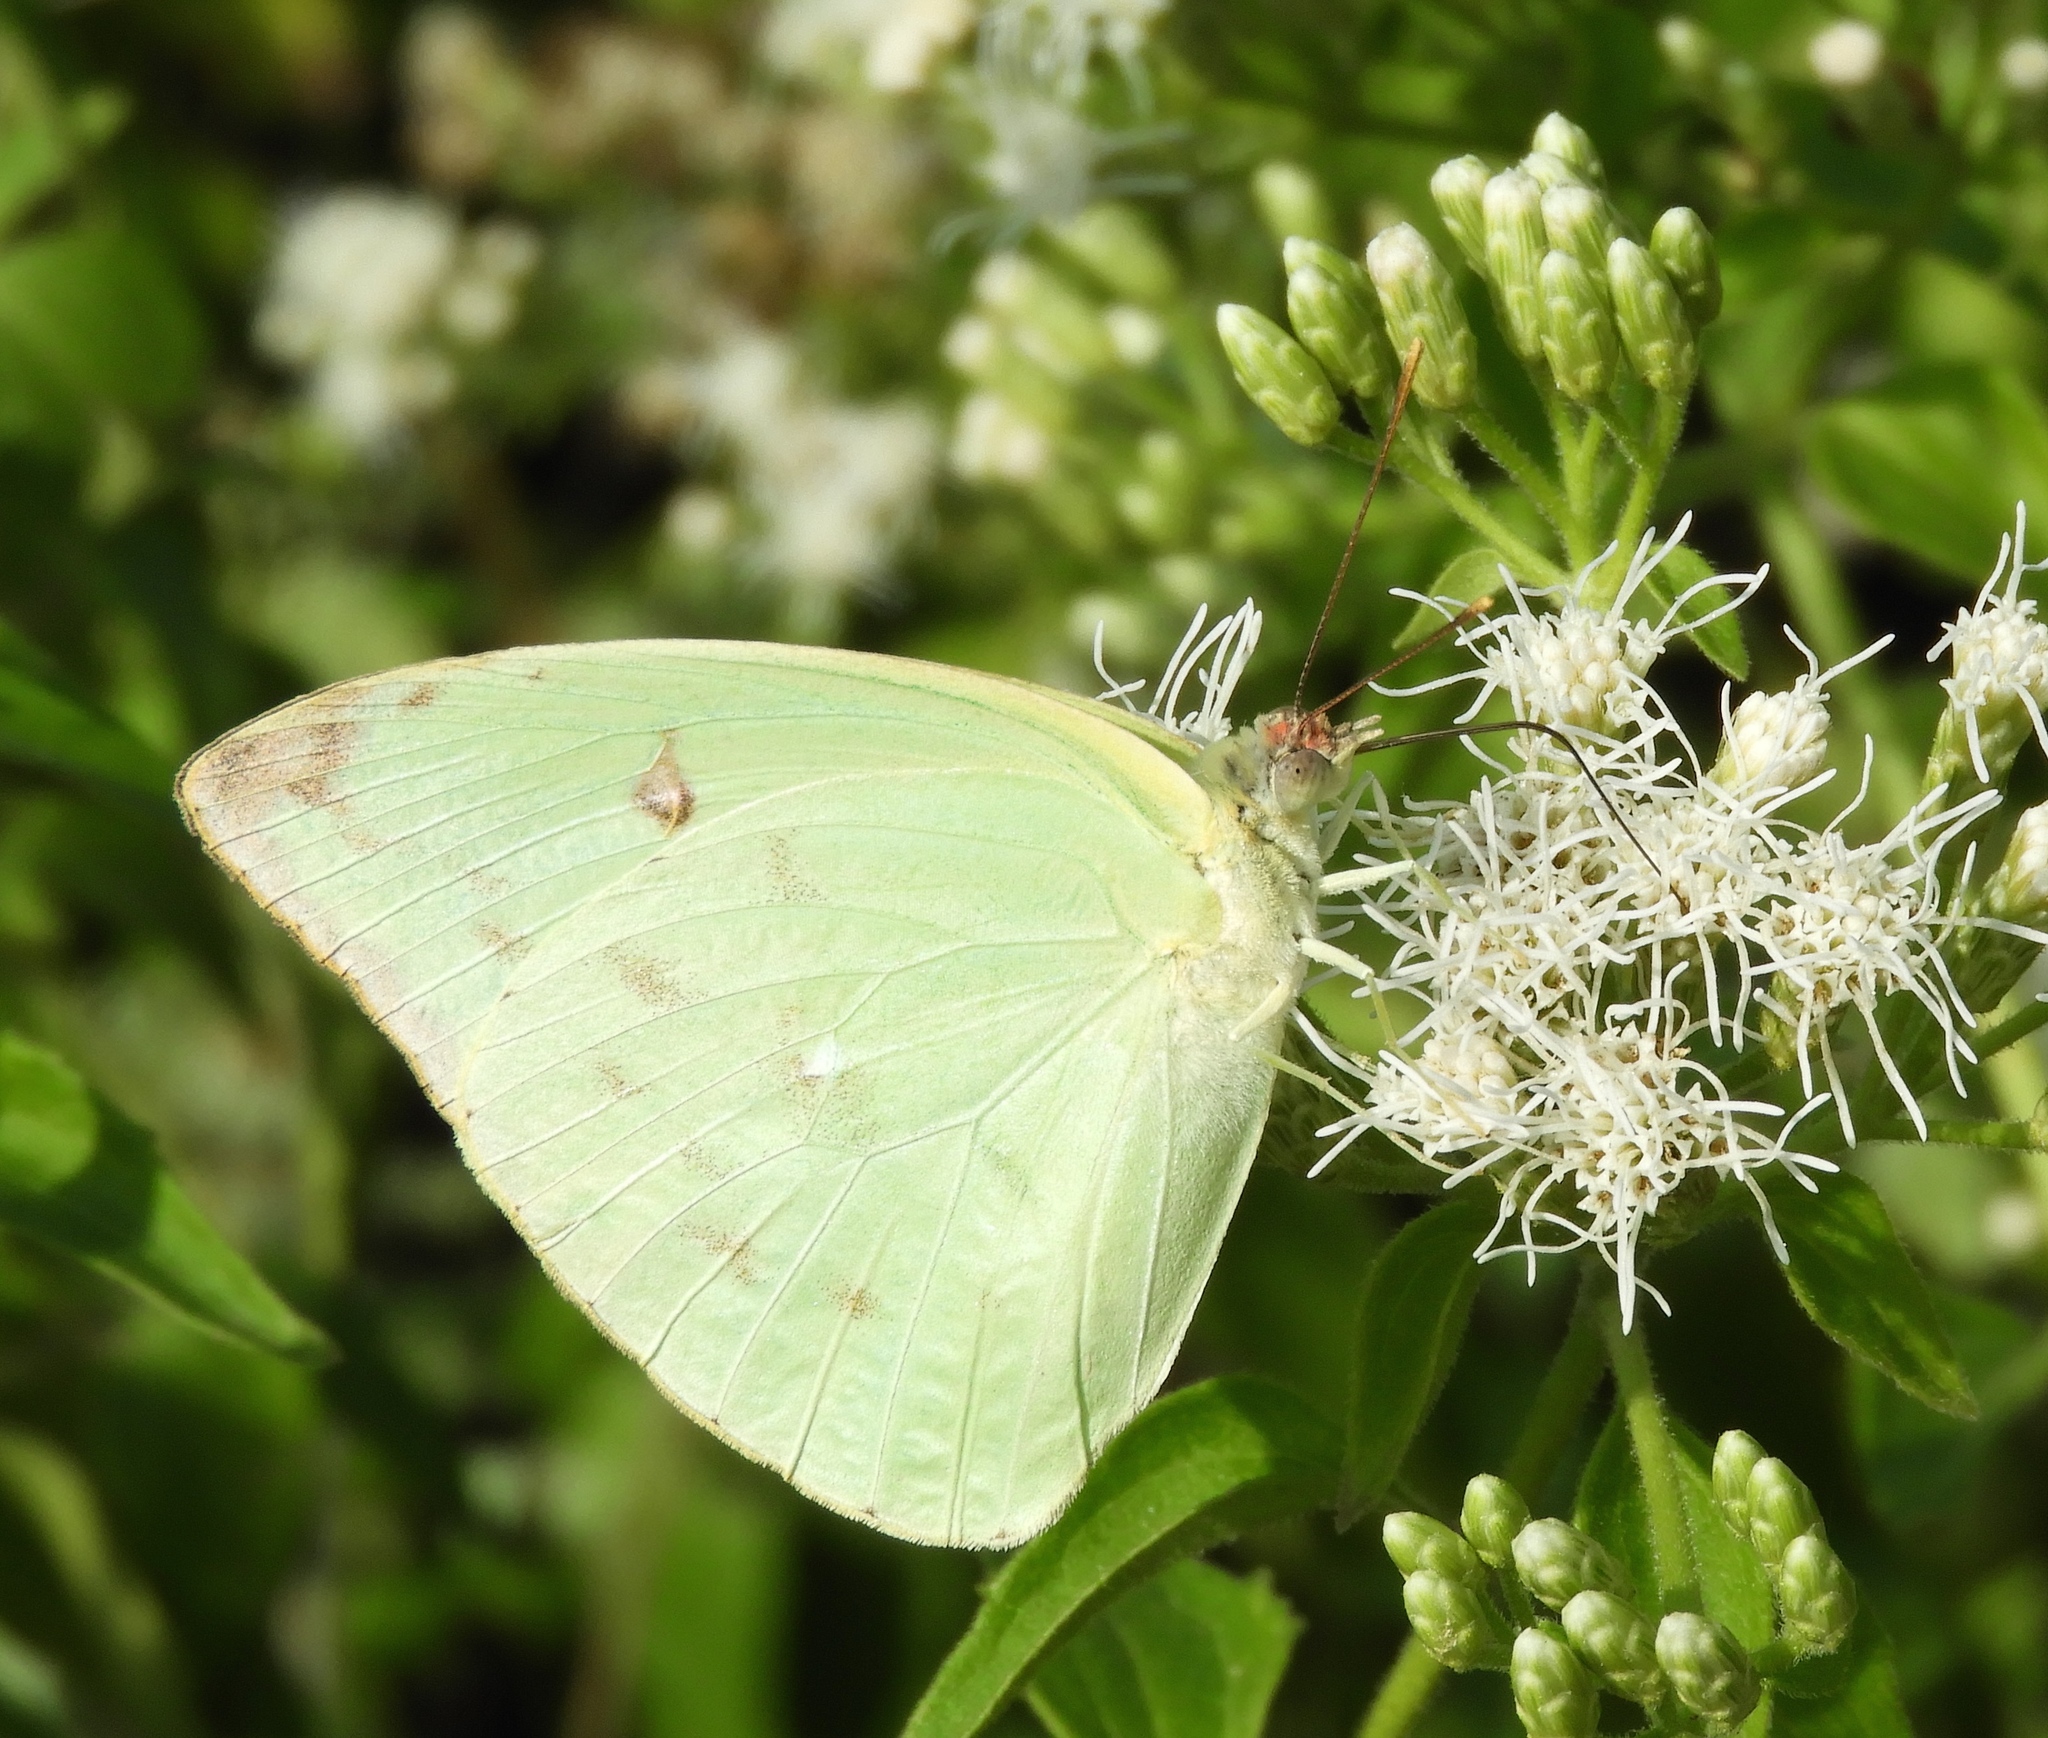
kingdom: Animalia
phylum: Arthropoda
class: Insecta
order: Lepidoptera
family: Pieridae
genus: Aphrissa
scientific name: Aphrissa statira
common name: Statira sulphur
